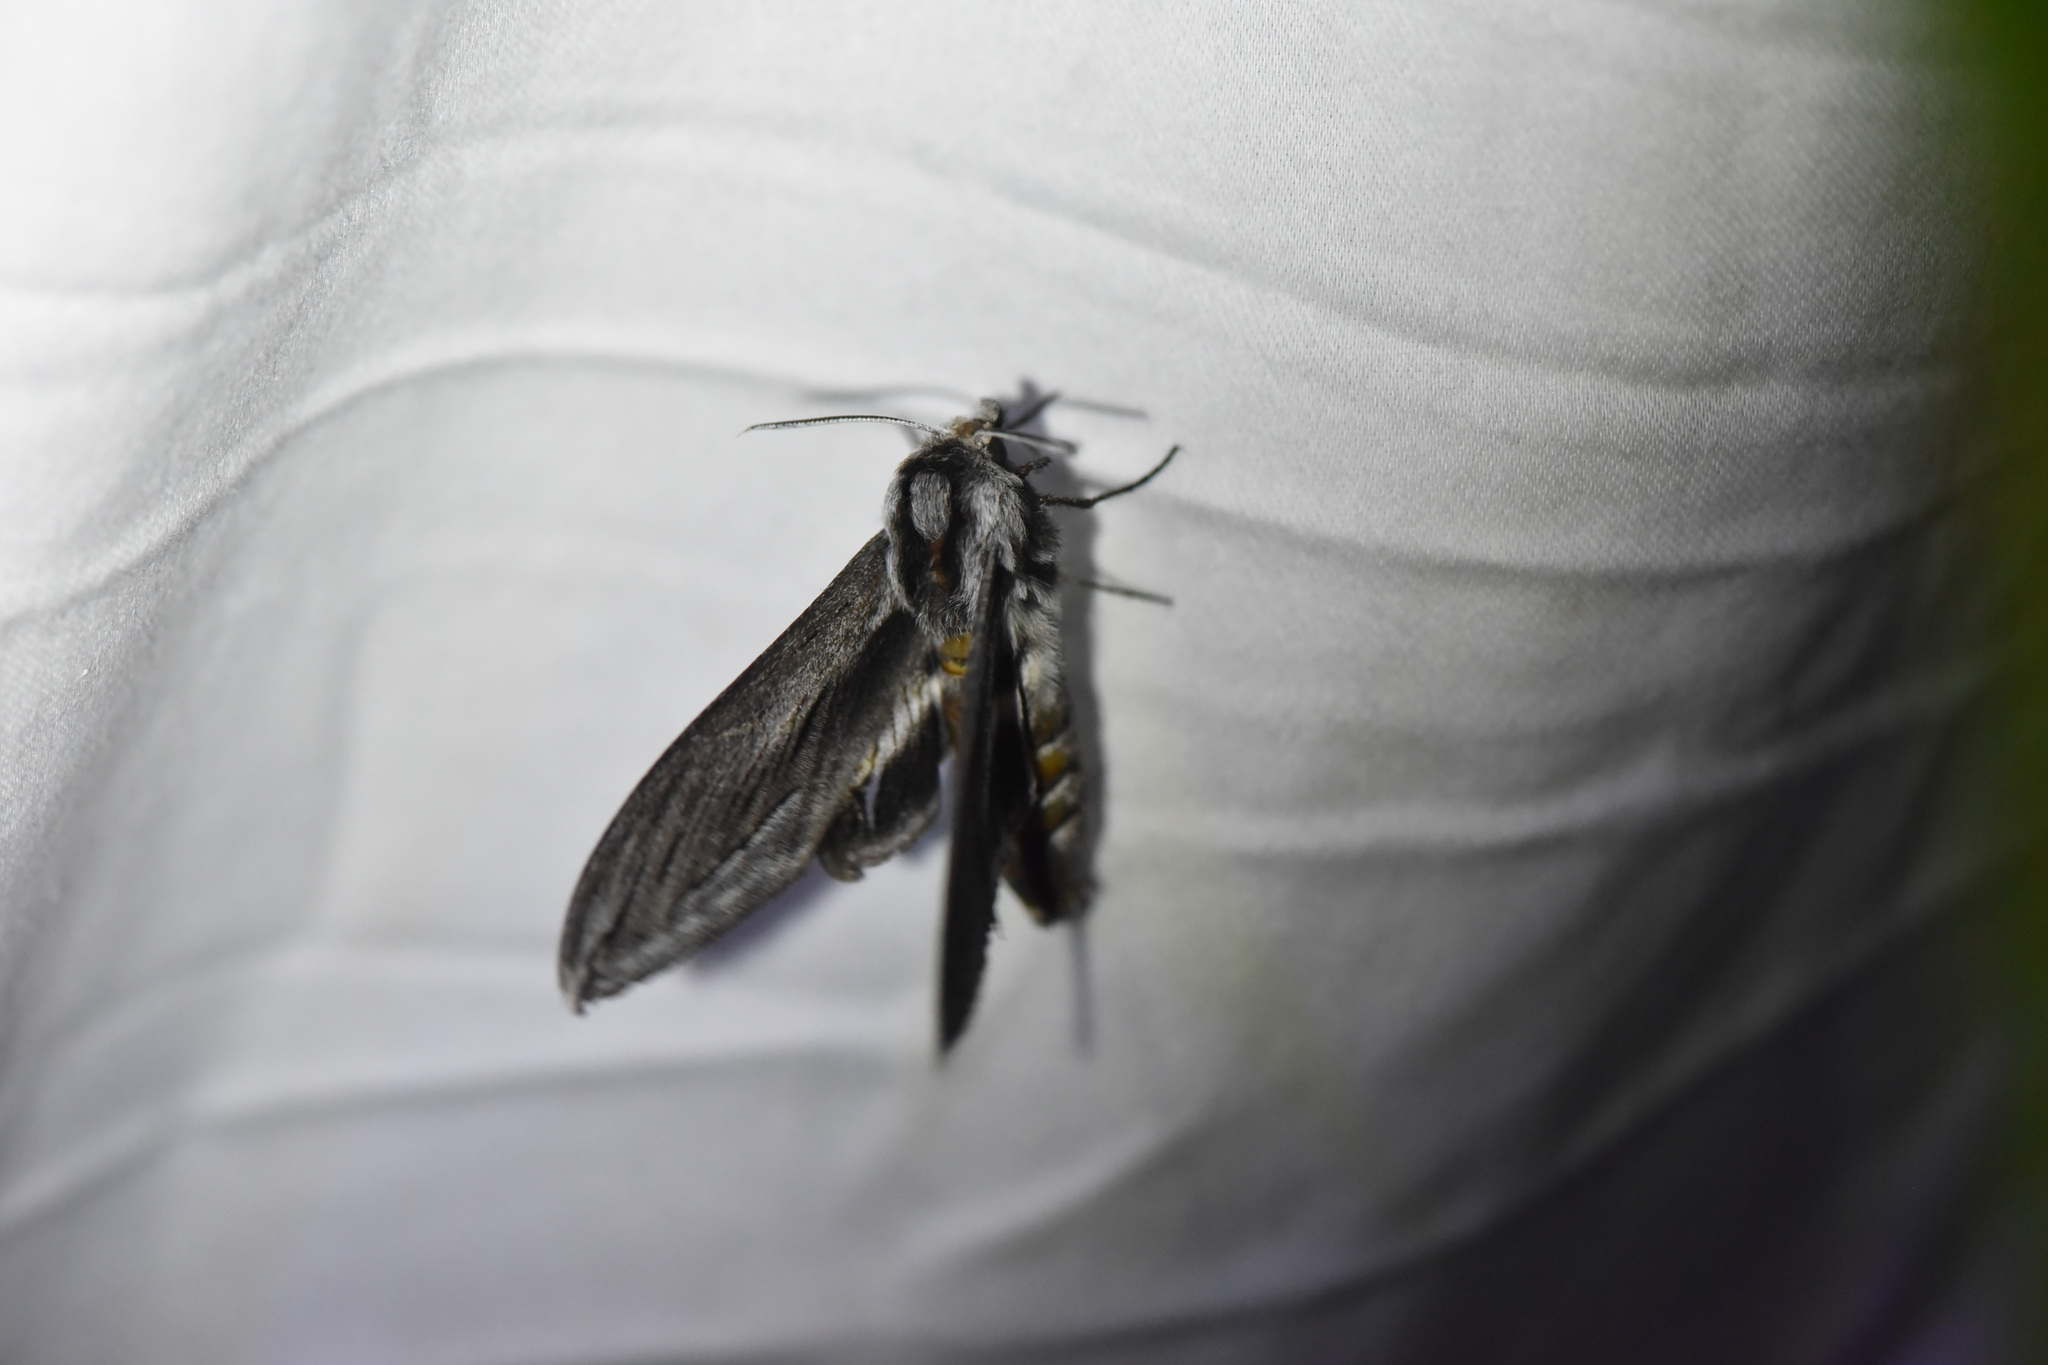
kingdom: Animalia
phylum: Arthropoda
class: Insecta
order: Lepidoptera
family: Sphingidae
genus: Sphinx
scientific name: Sphinx vashti
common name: Snowberry sphinx
